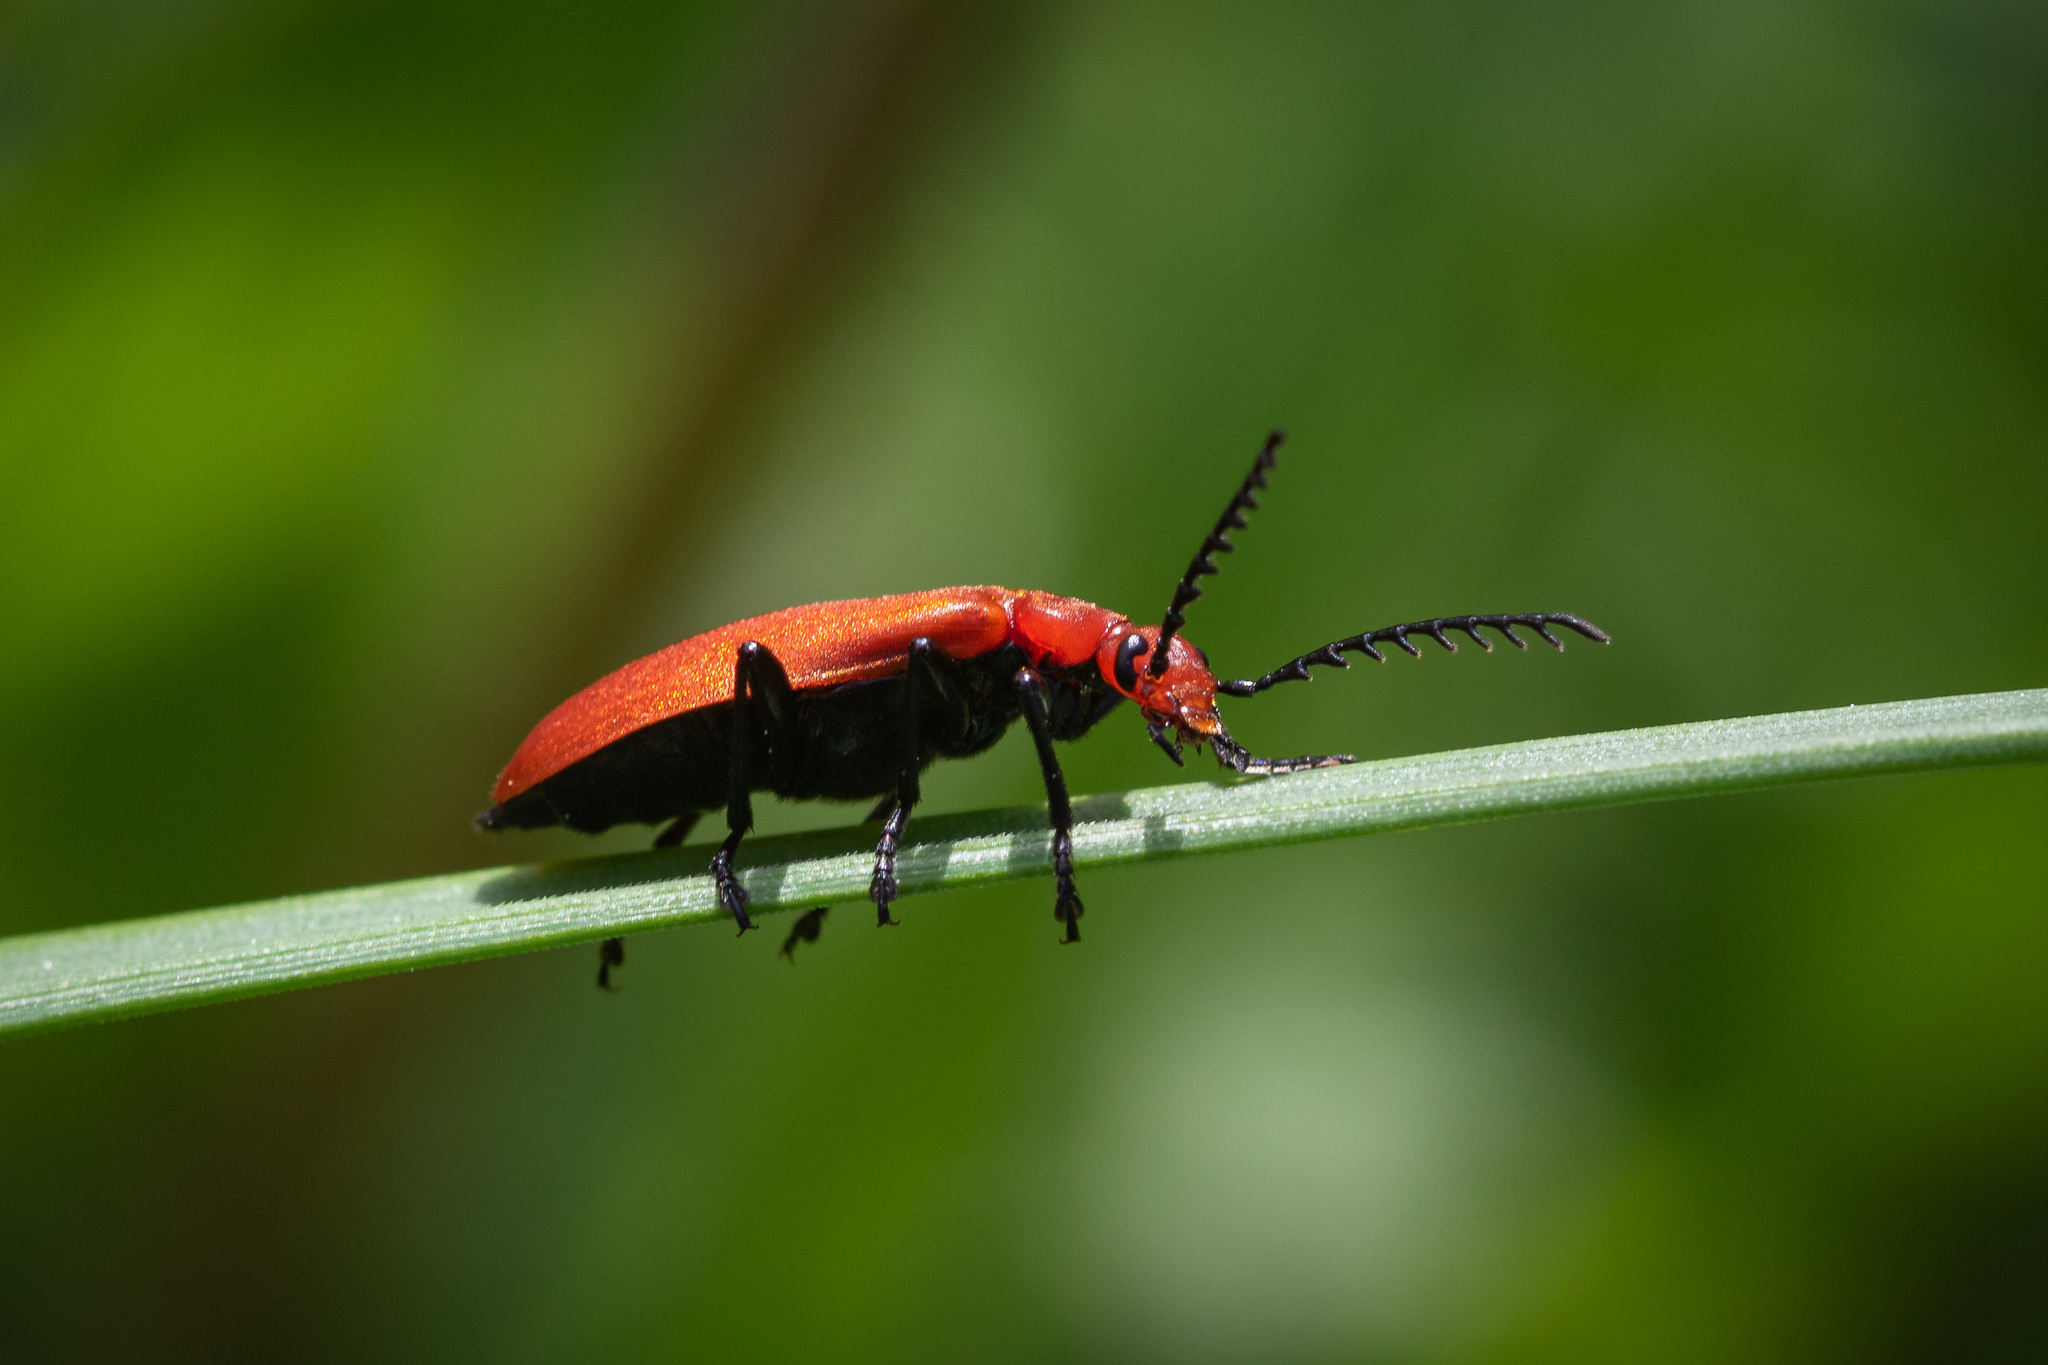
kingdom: Animalia
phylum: Arthropoda
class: Insecta
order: Coleoptera
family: Pyrochroidae
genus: Pyrochroa
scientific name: Pyrochroa serraticornis
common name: Red-headed cardinal beetle
